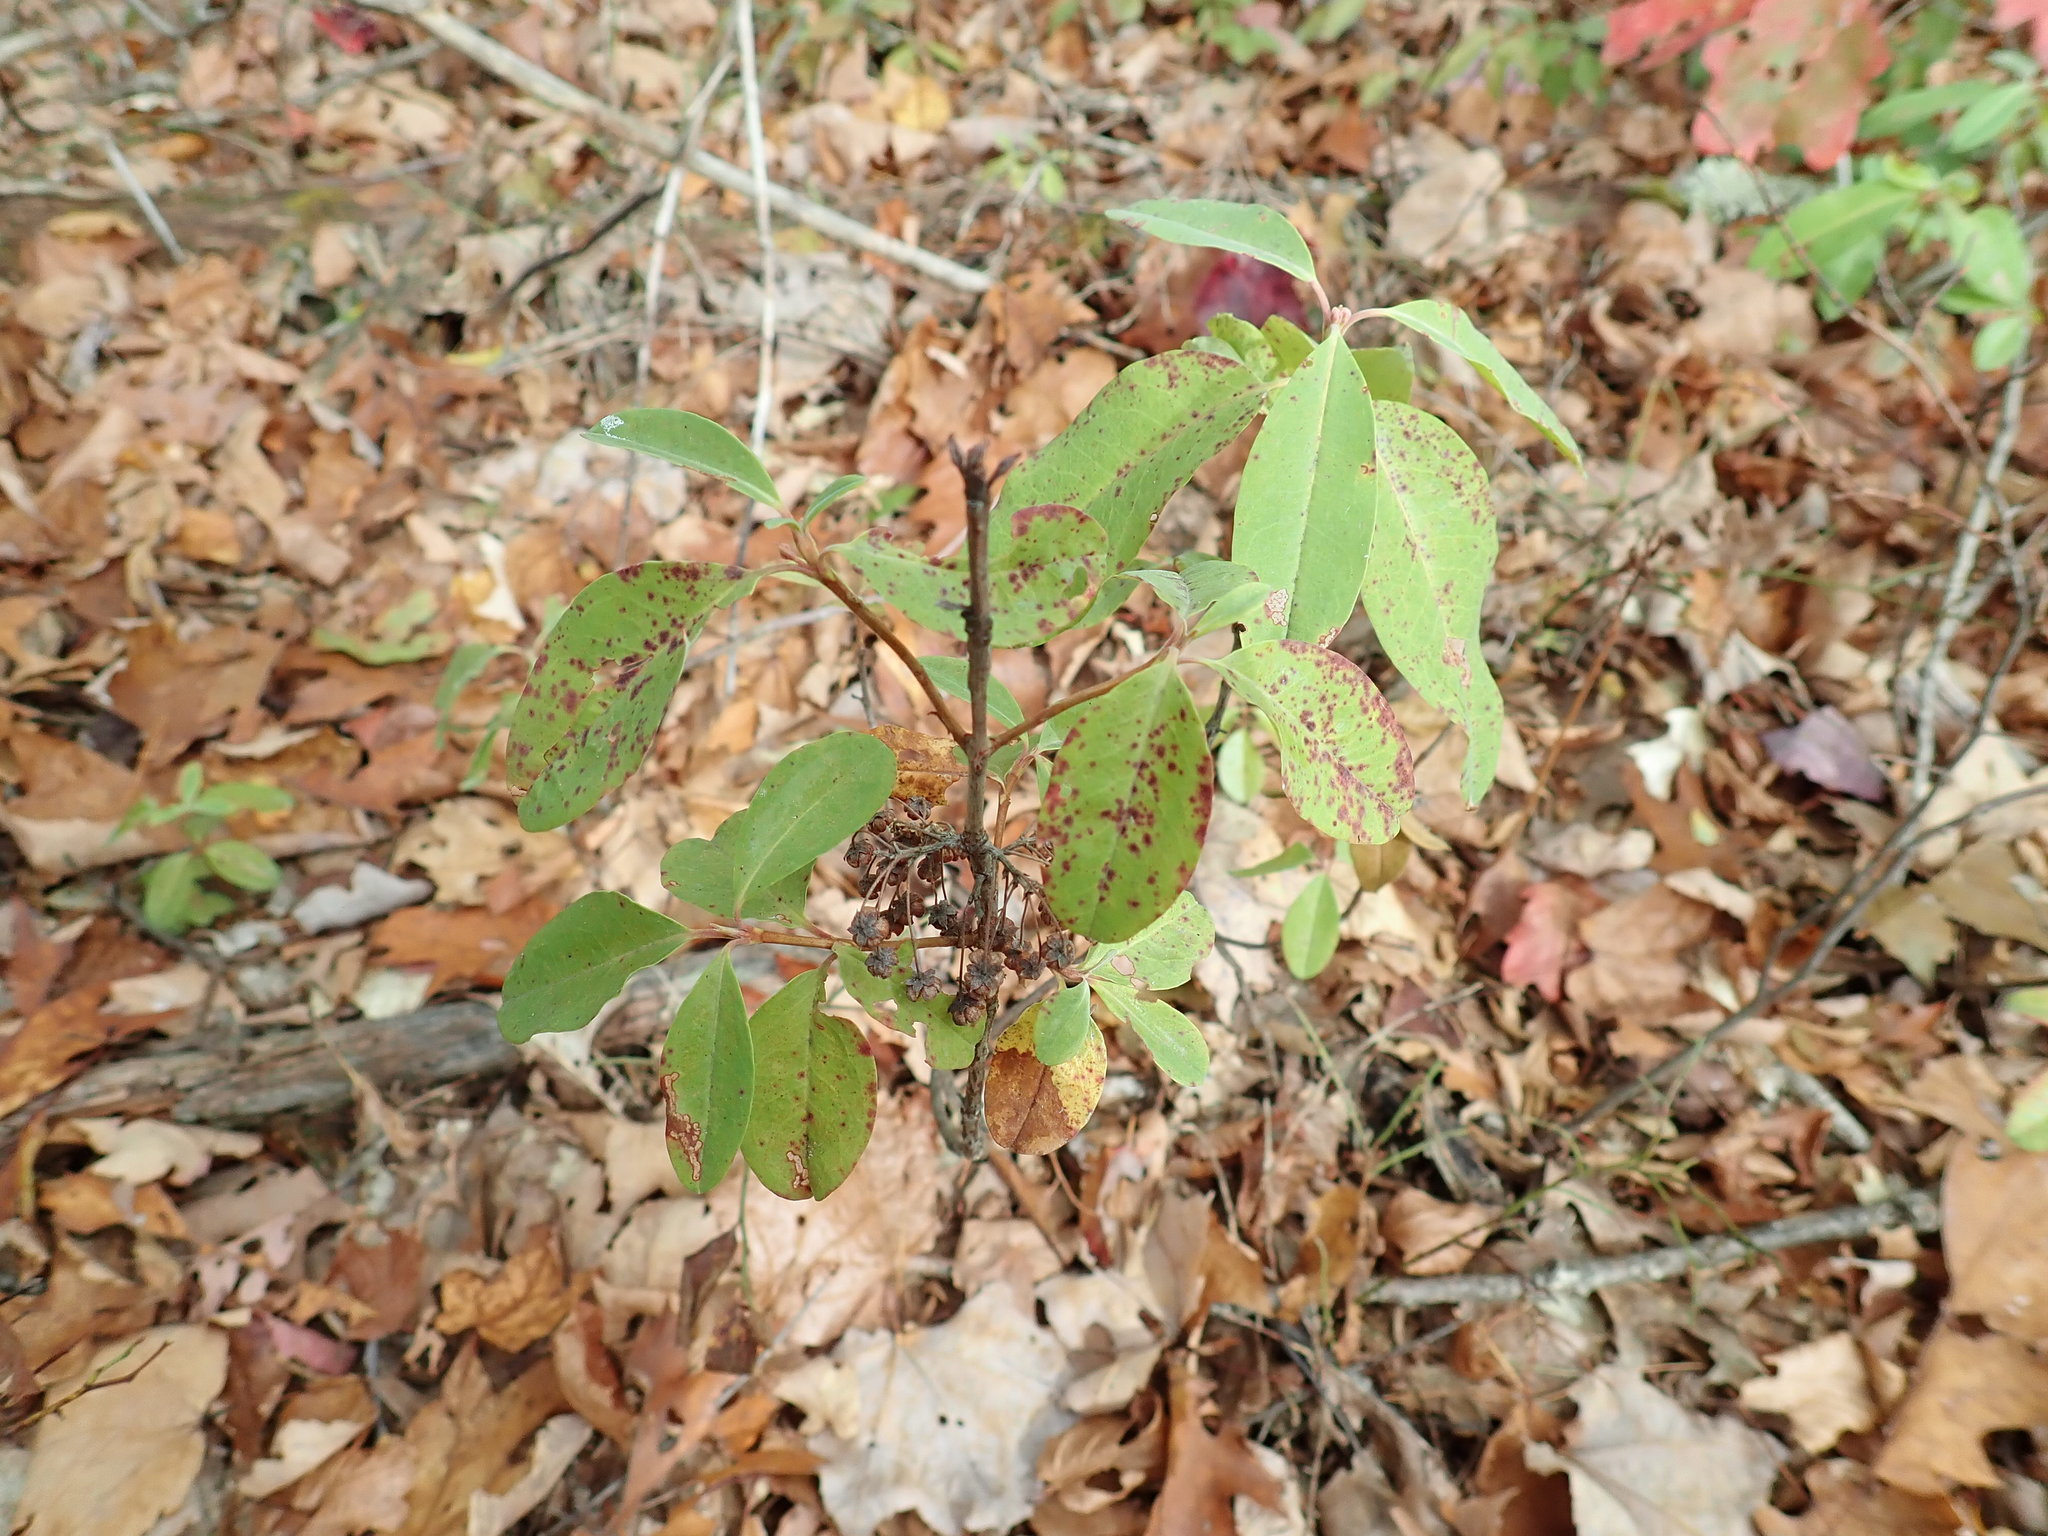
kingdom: Plantae
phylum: Tracheophyta
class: Magnoliopsida
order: Ericales
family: Ericaceae
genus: Kalmia
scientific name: Kalmia angustifolia
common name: Sheep-laurel
